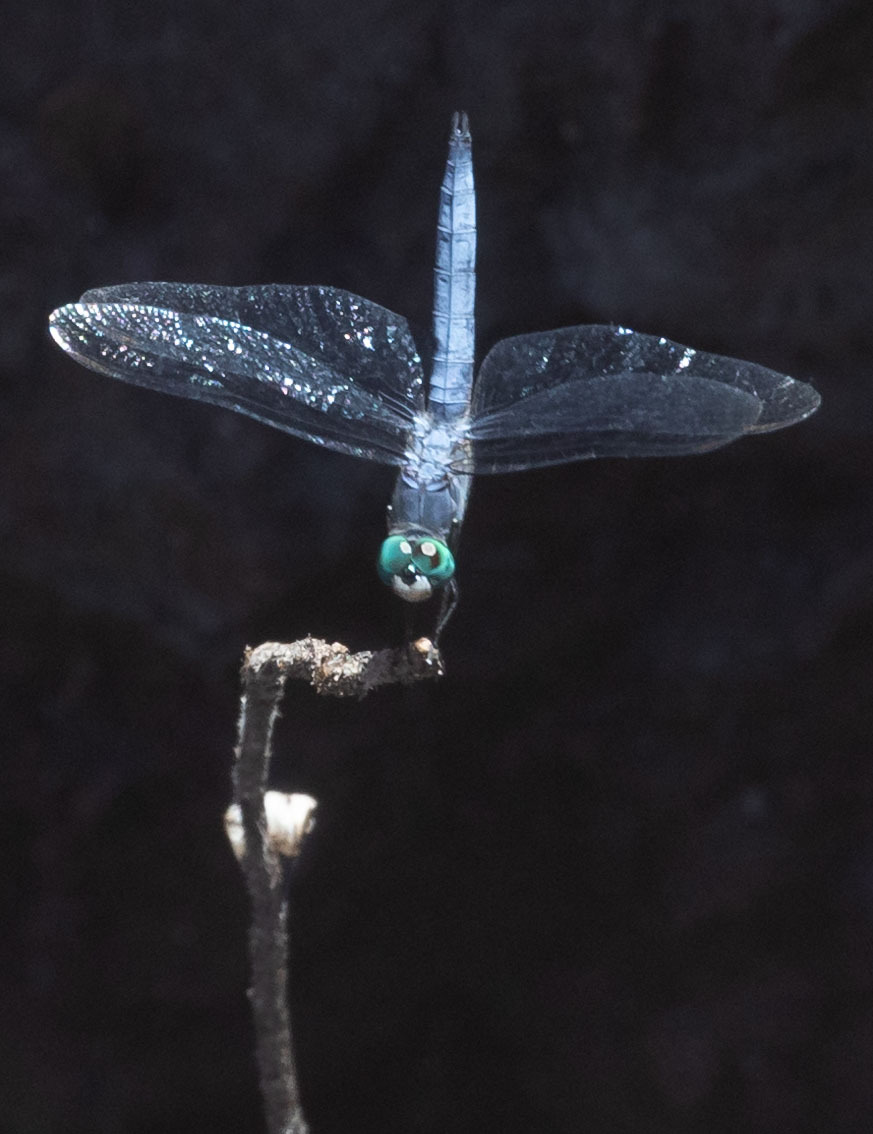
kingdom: Animalia
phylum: Arthropoda
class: Insecta
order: Odonata
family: Libellulidae
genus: Pachydiplax
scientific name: Pachydiplax longipennis
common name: Blue dasher
